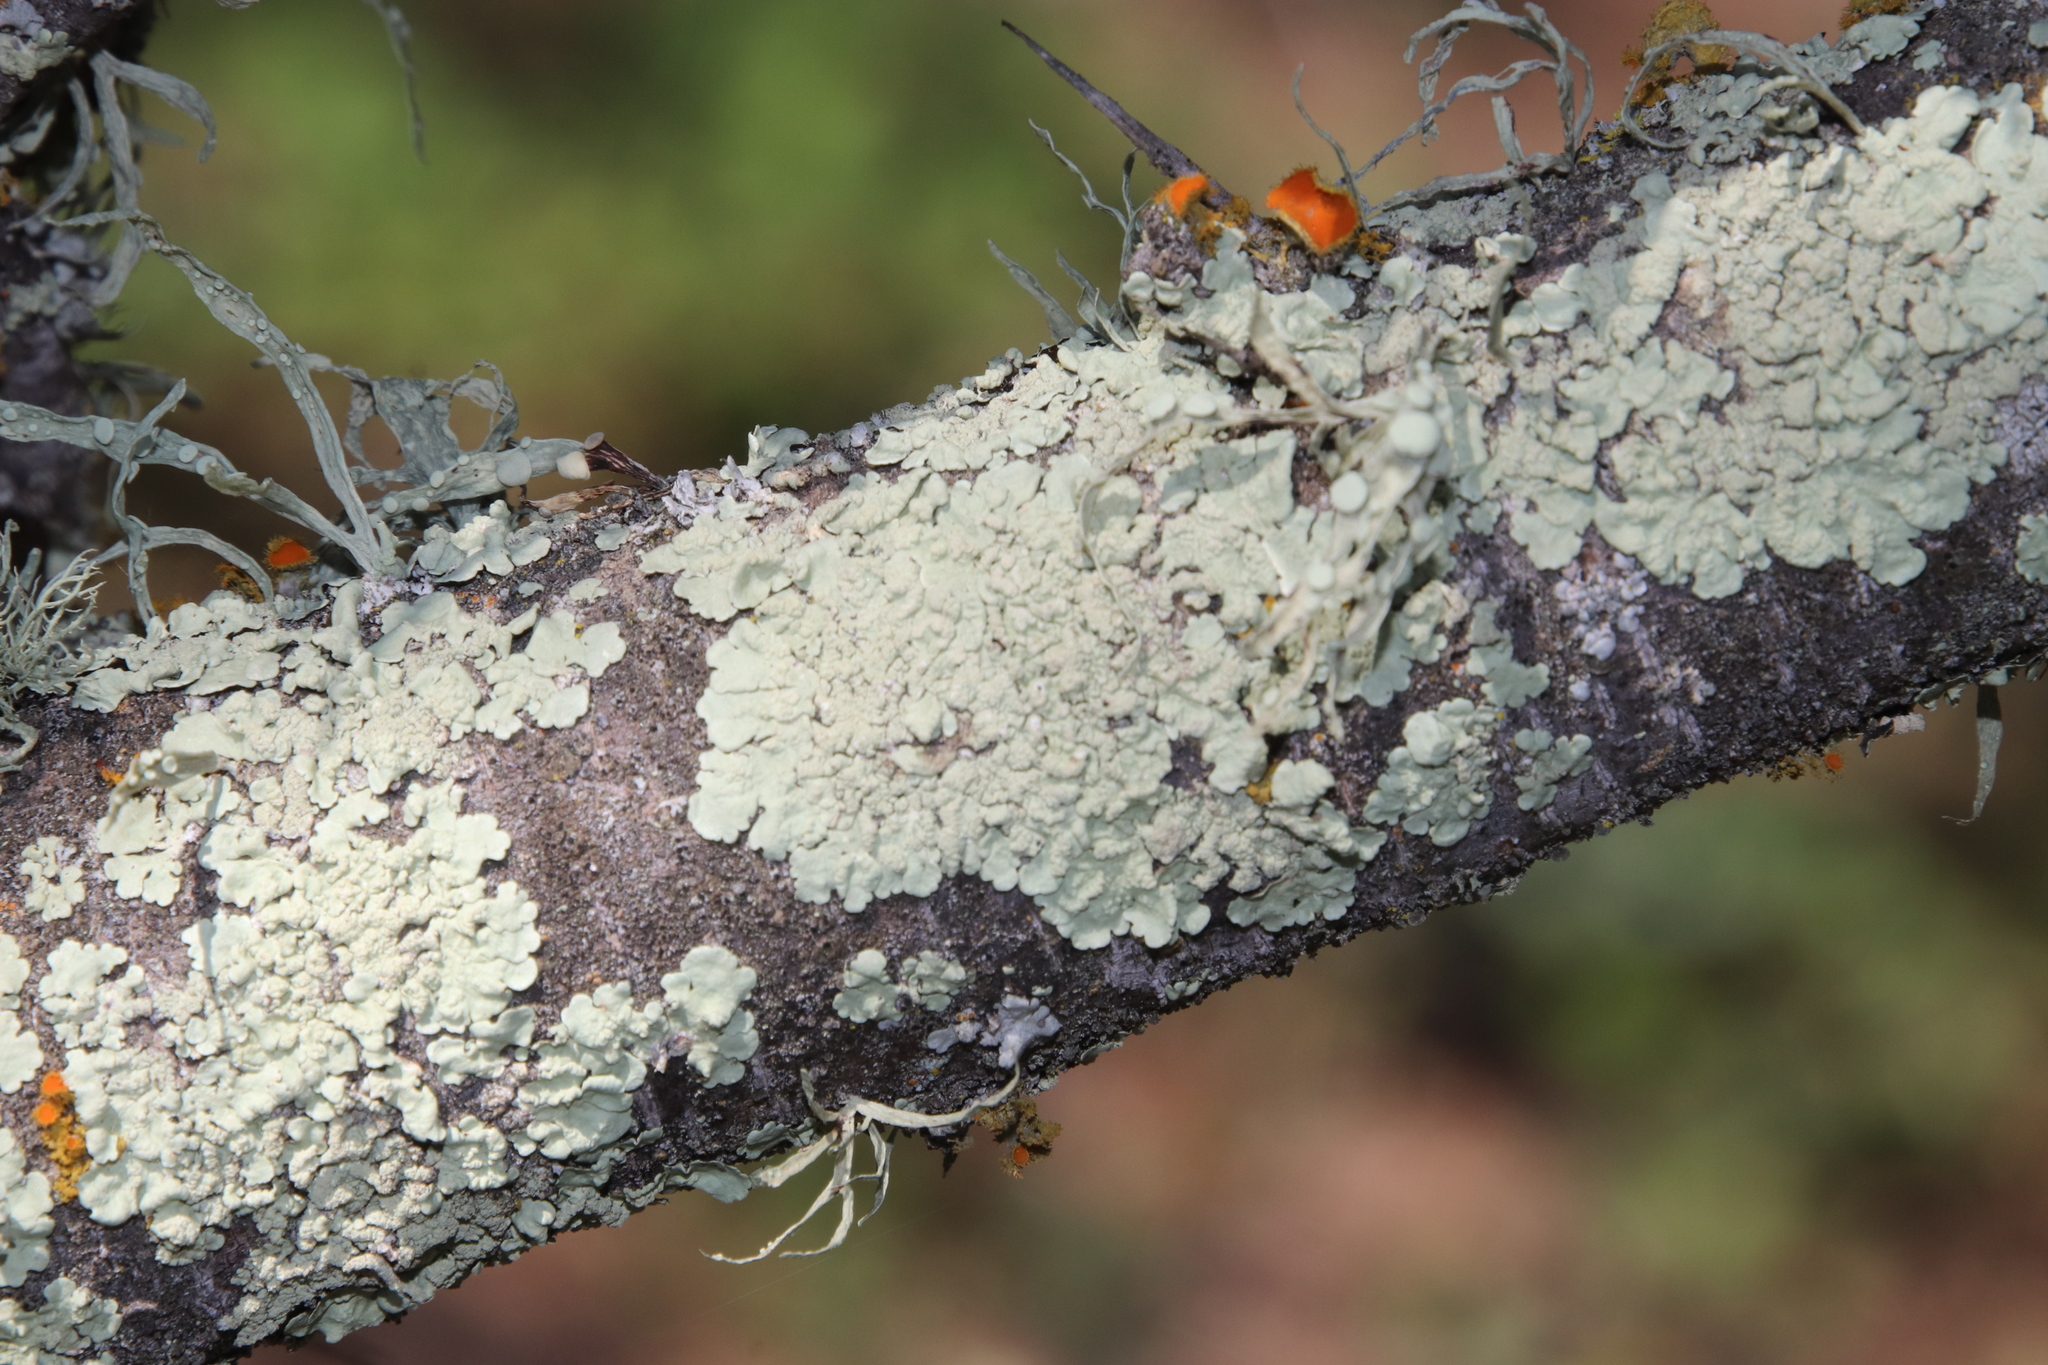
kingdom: Fungi
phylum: Ascomycota
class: Lecanoromycetes
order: Lecanorales
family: Ramalinaceae
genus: Ramalina
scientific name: Ramalina celastri
